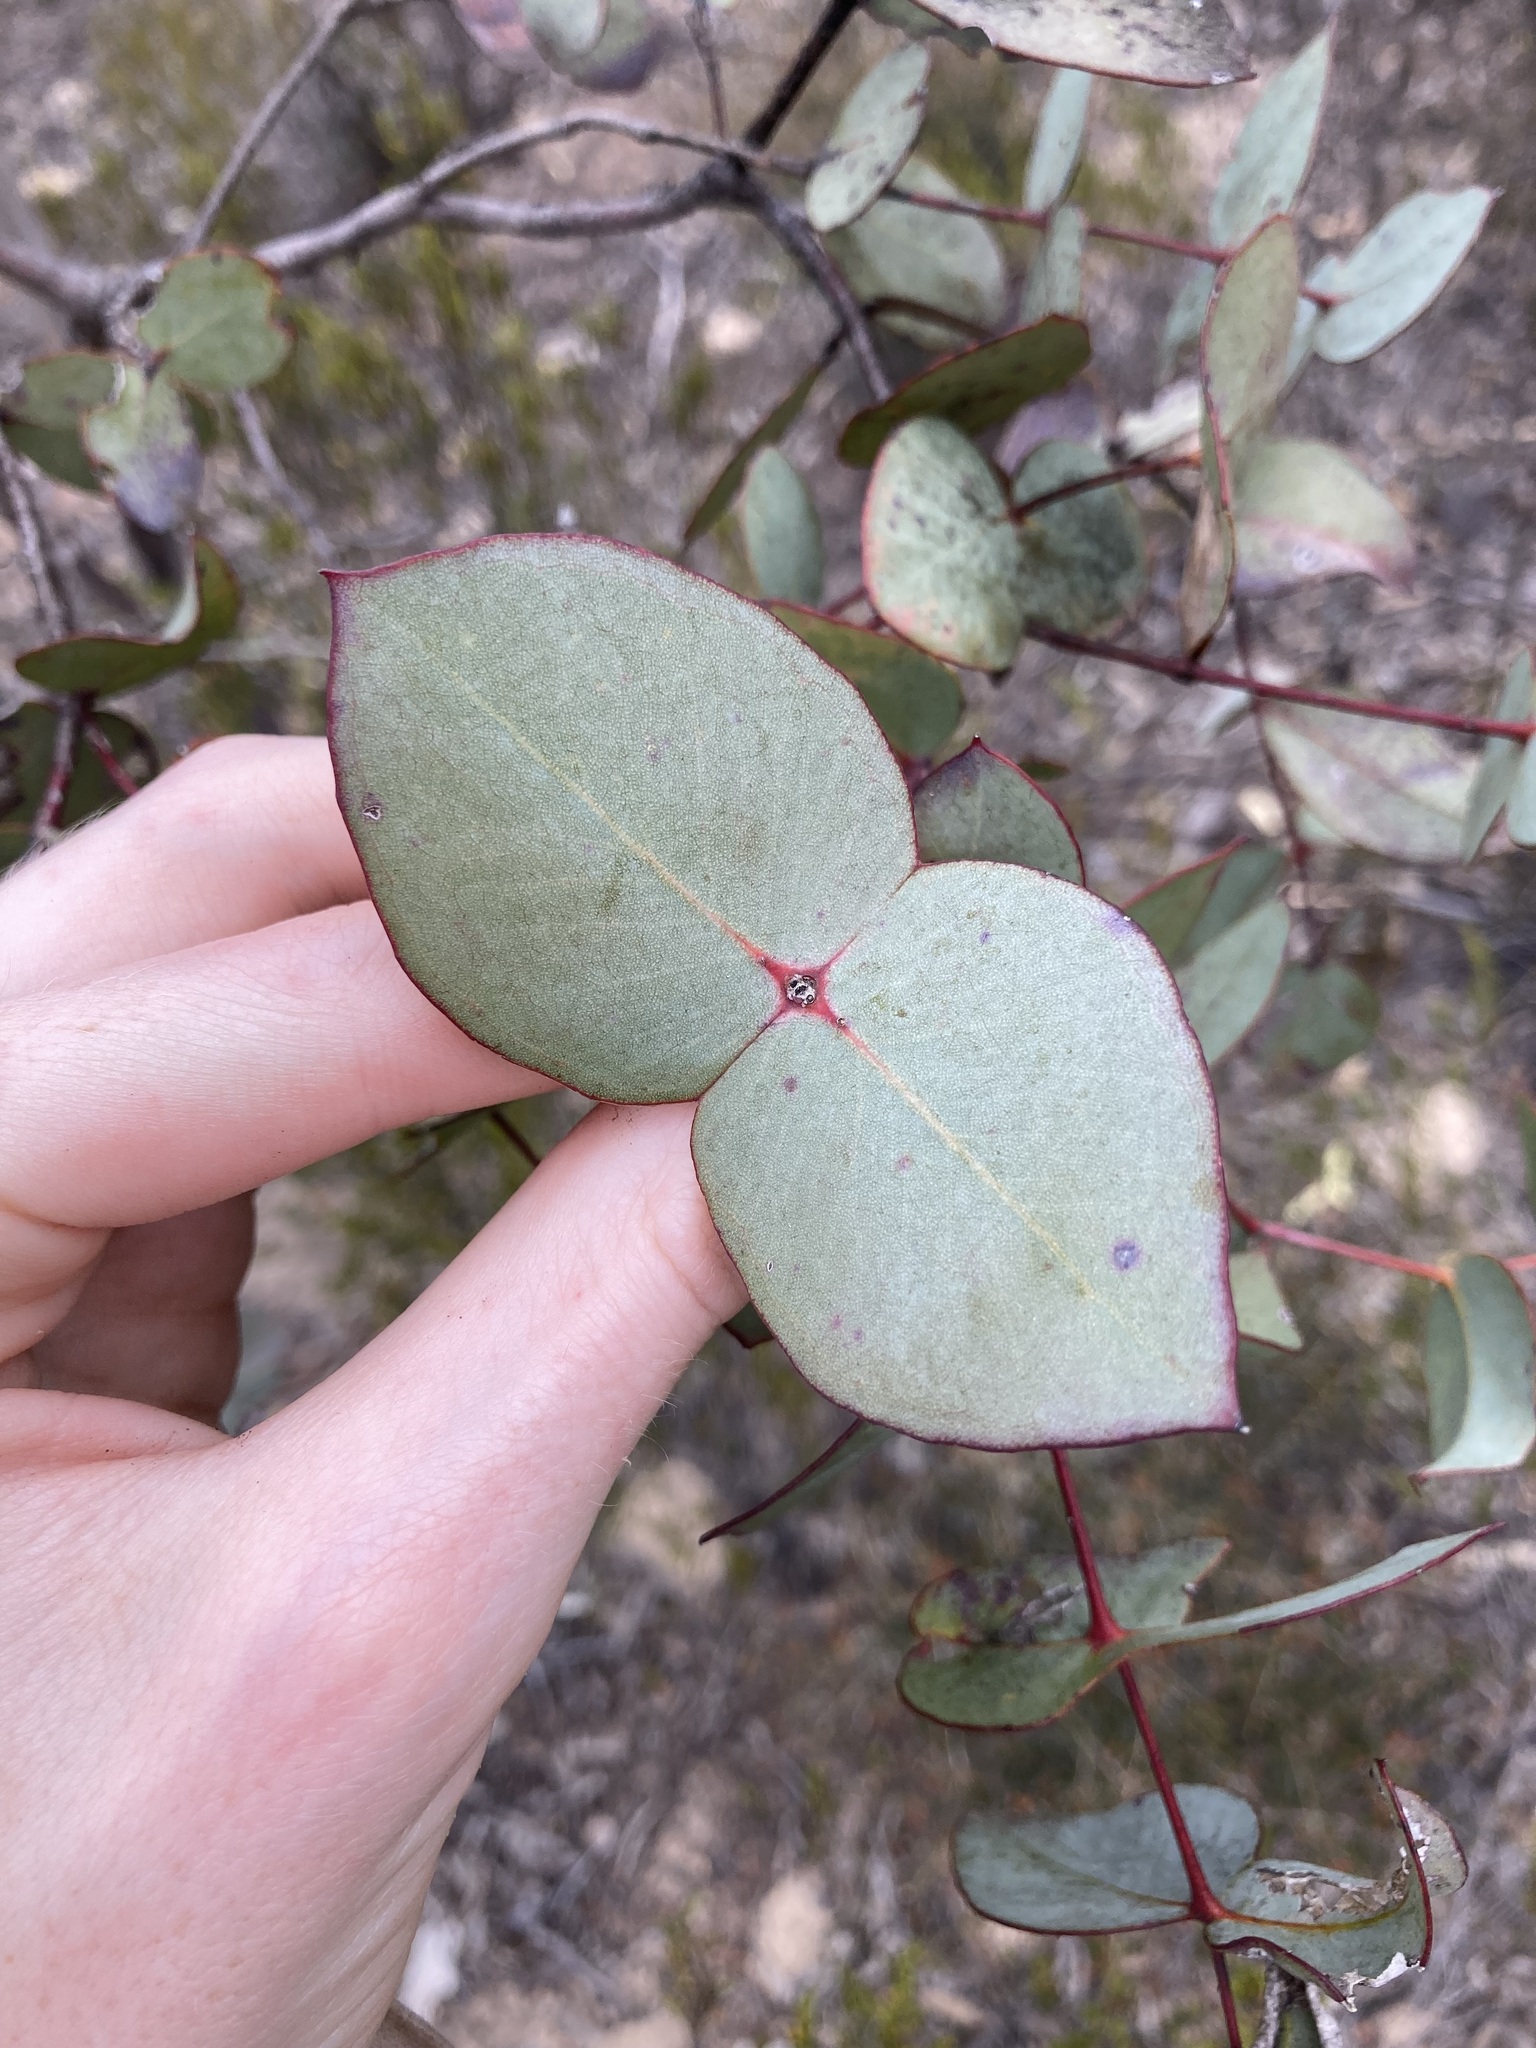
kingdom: Plantae
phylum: Tracheophyta
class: Magnoliopsida
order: Myrtales
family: Myrtaceae
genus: Eucalyptus
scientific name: Eucalyptus uncinata
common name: Hooked-leaved mallee
